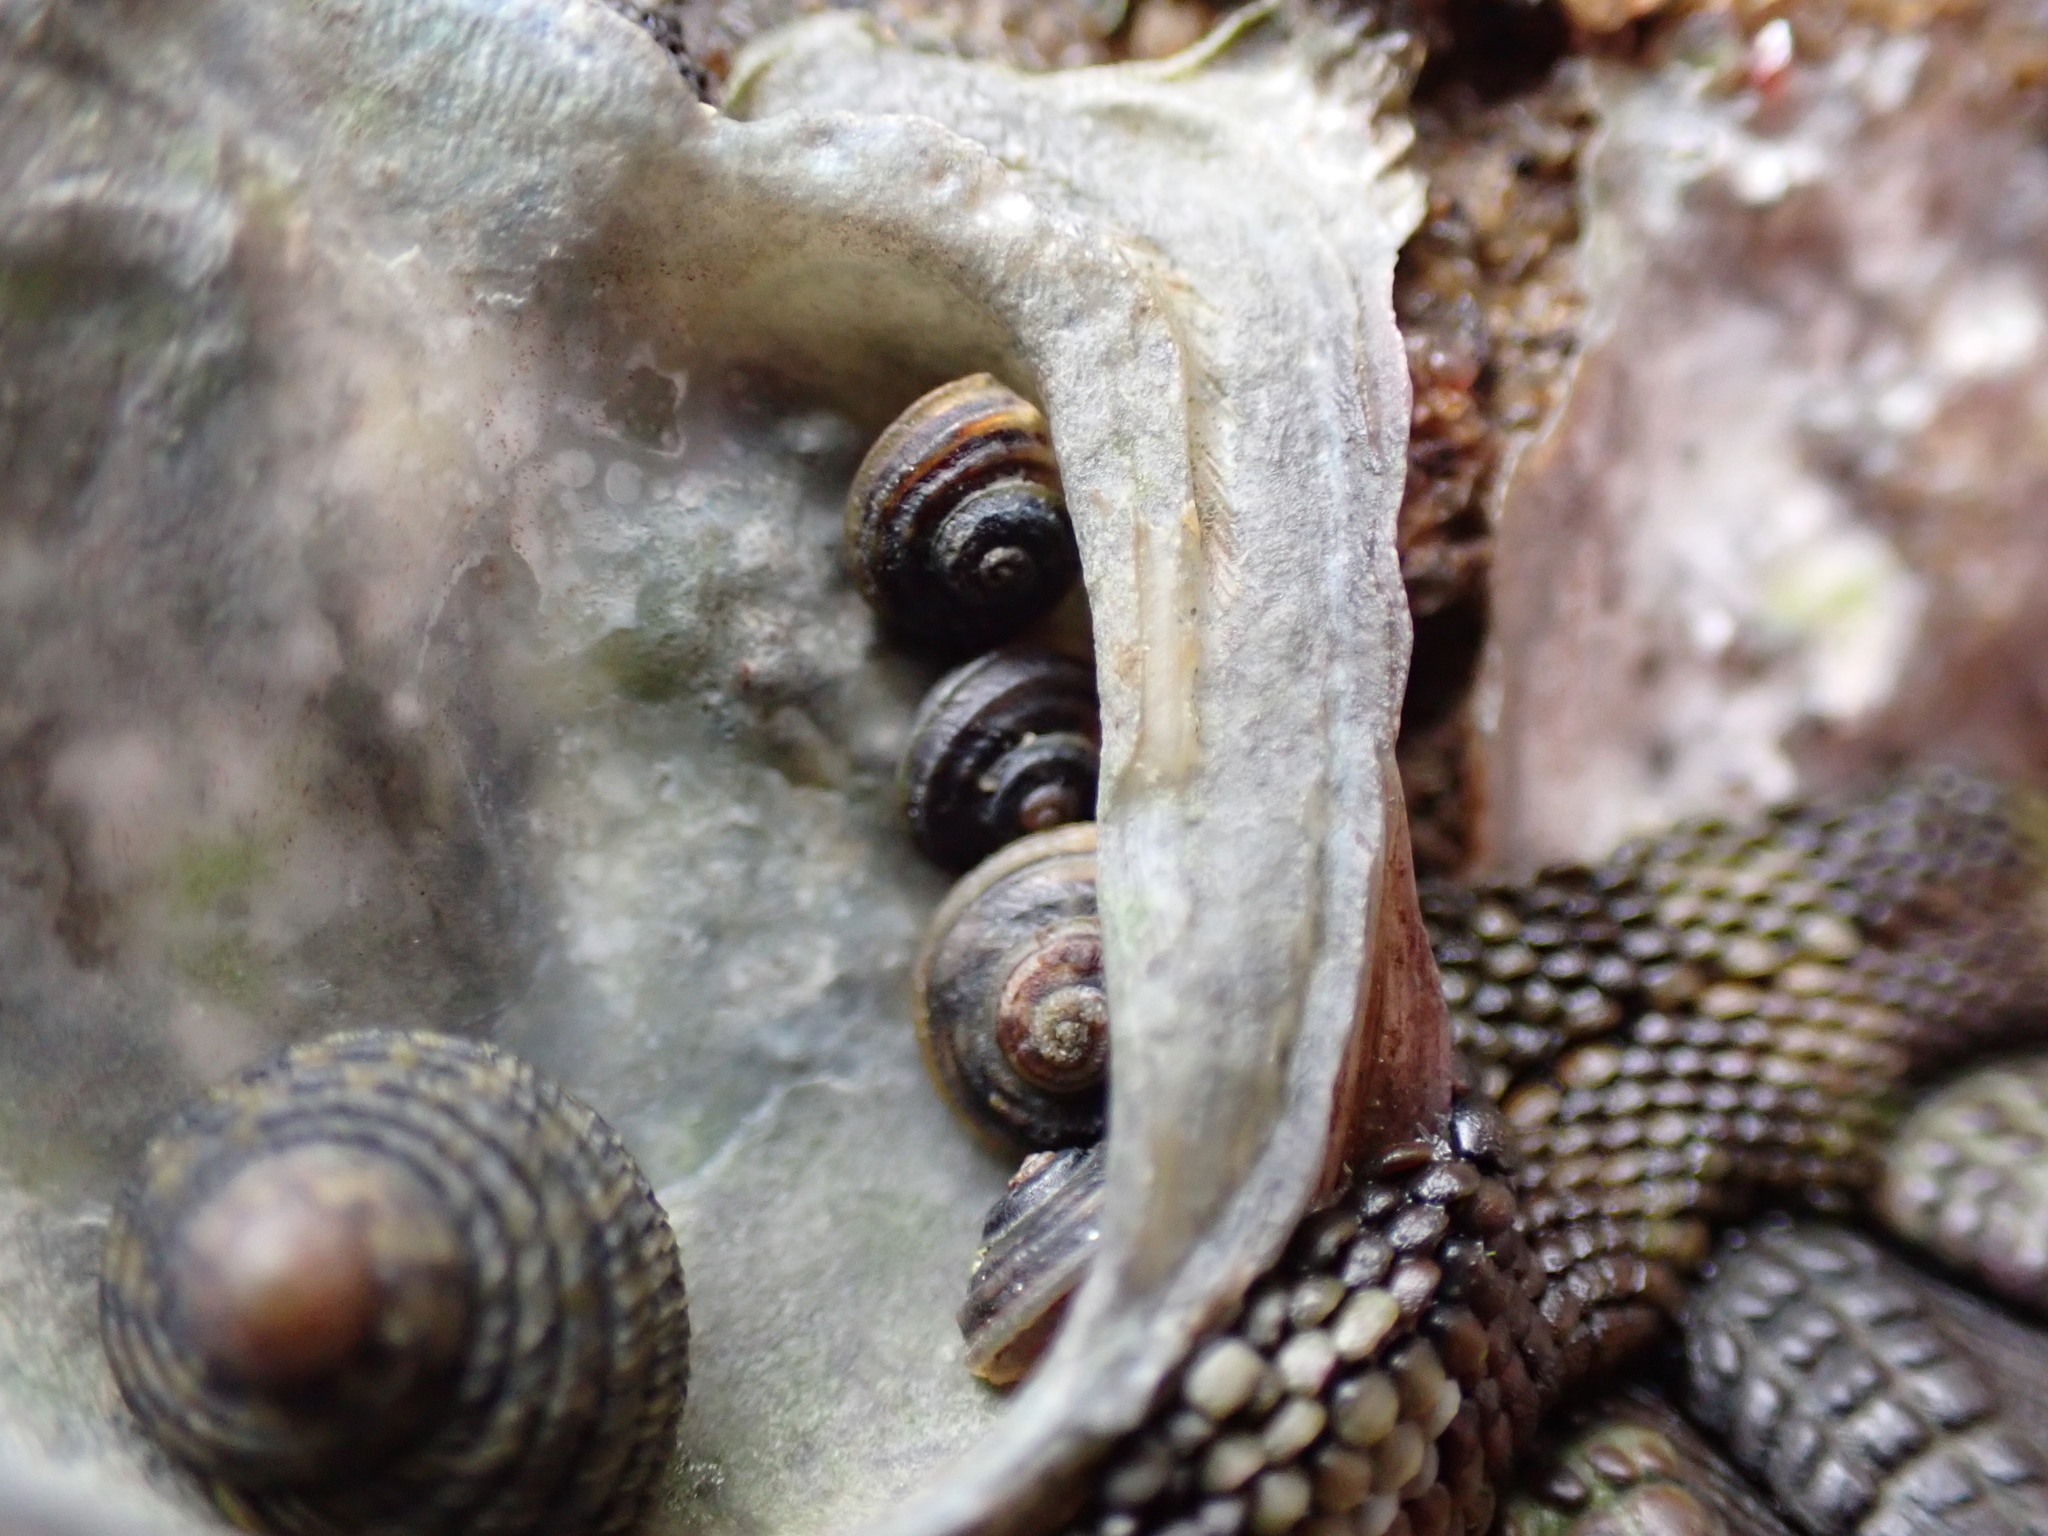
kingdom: Animalia
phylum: Mollusca
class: Gastropoda
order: Littorinimorpha
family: Littorinidae
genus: Risellopsis
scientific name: Risellopsis varia
